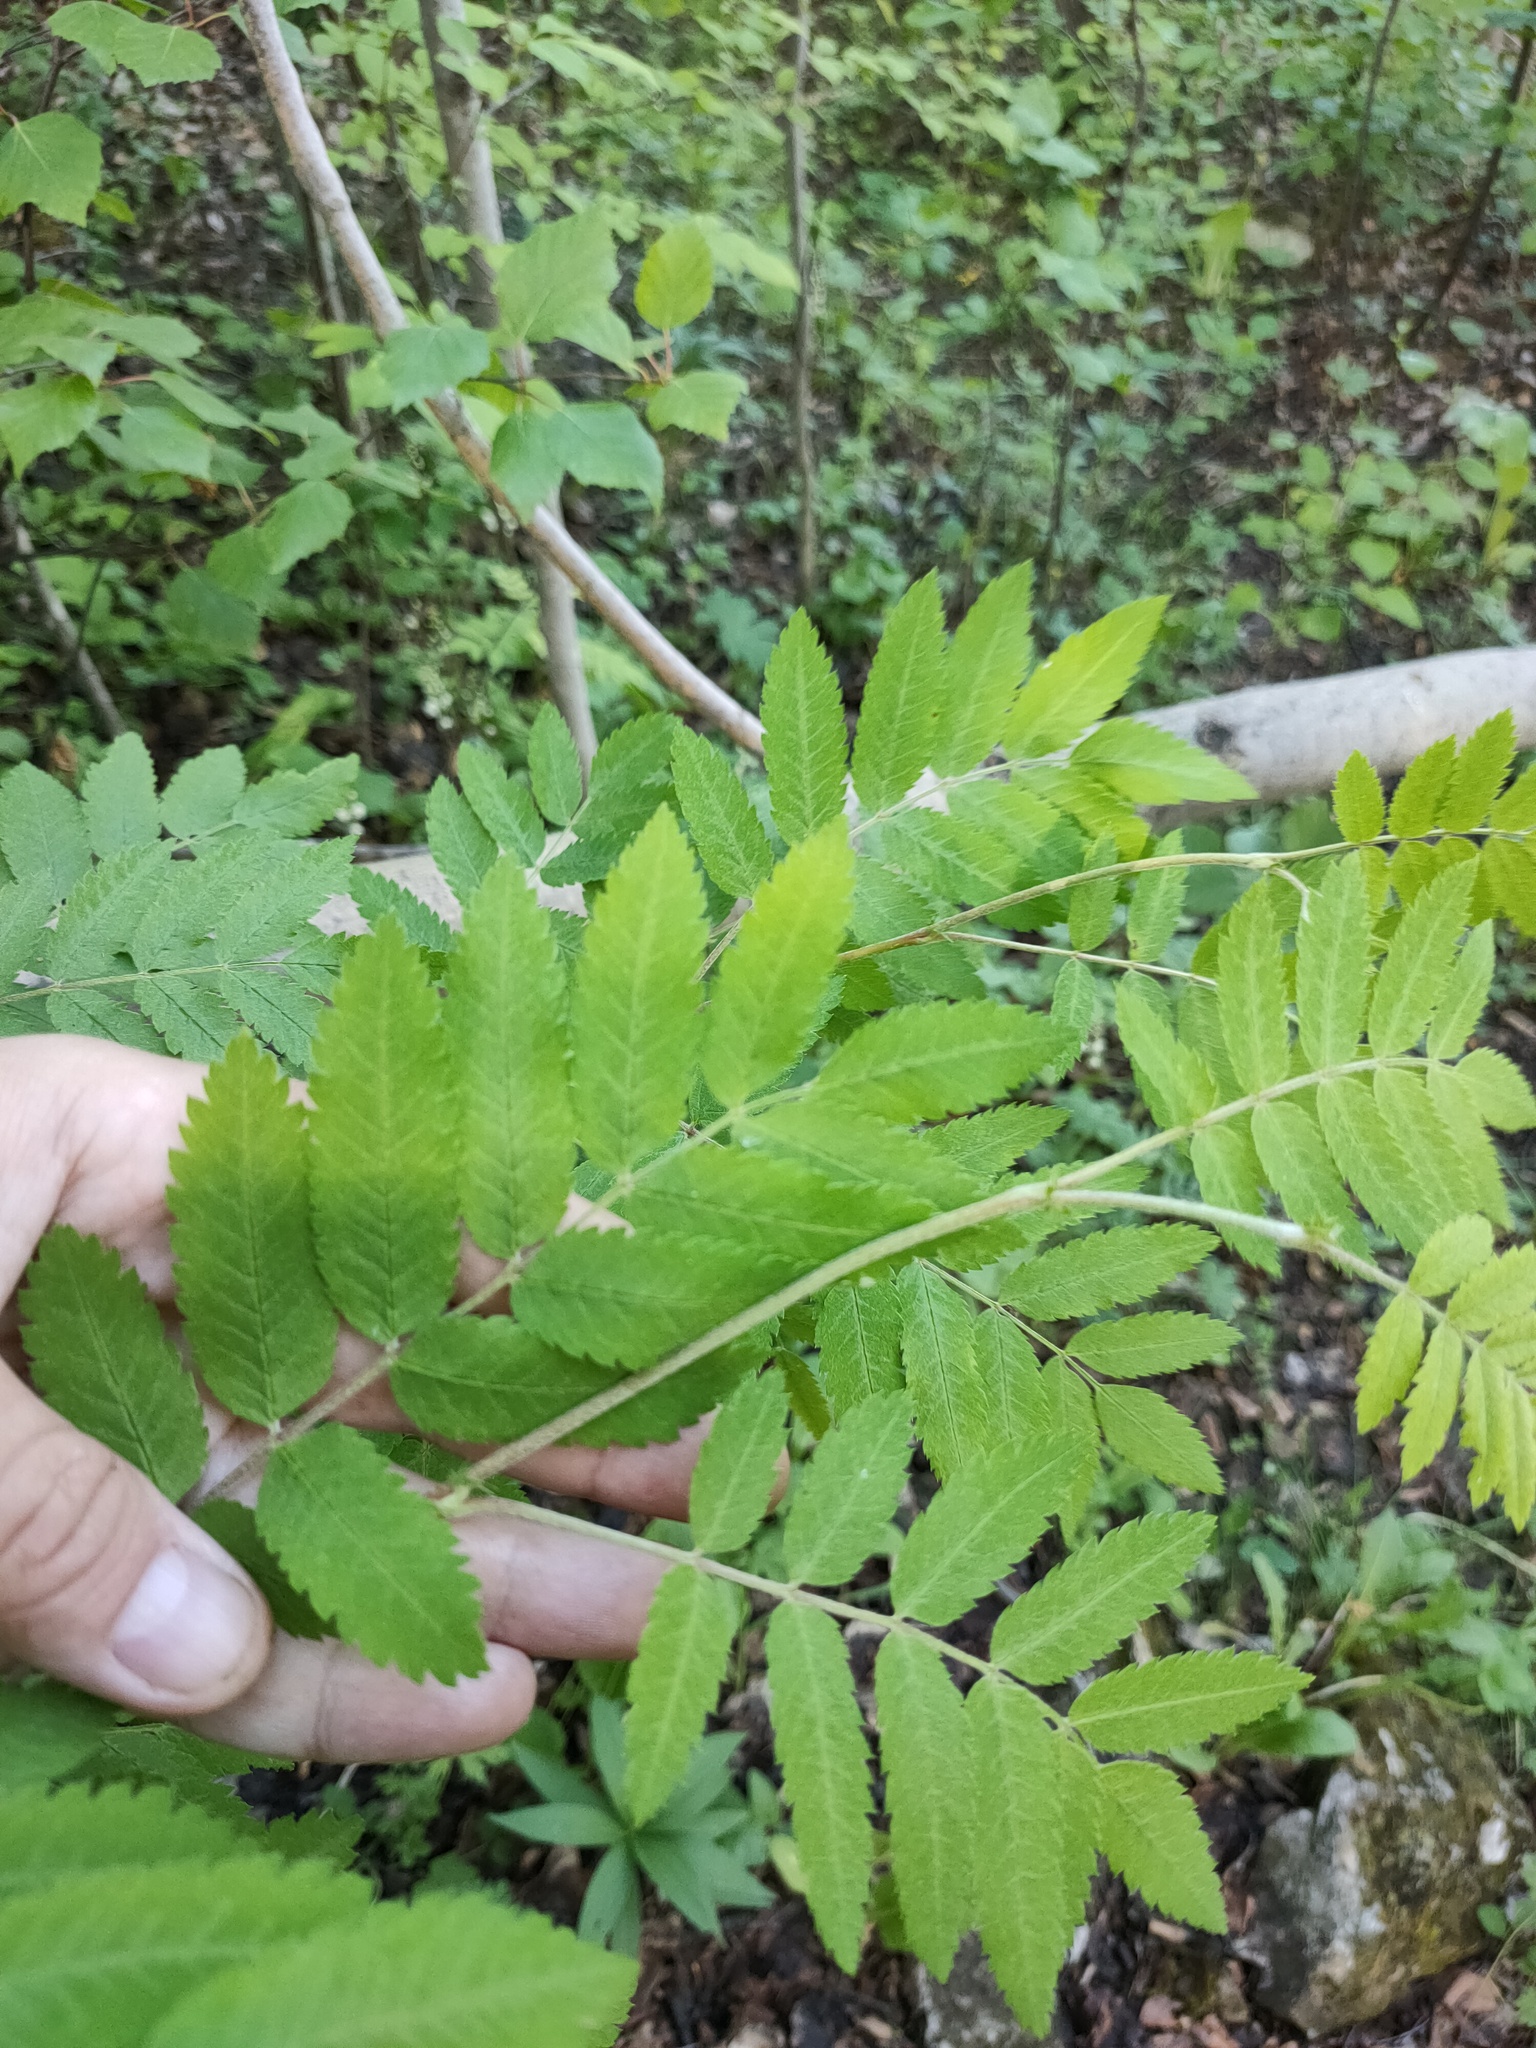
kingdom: Plantae
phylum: Tracheophyta
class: Magnoliopsida
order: Rosales
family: Rosaceae
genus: Sorbus
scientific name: Sorbus aucuparia
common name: Rowan
